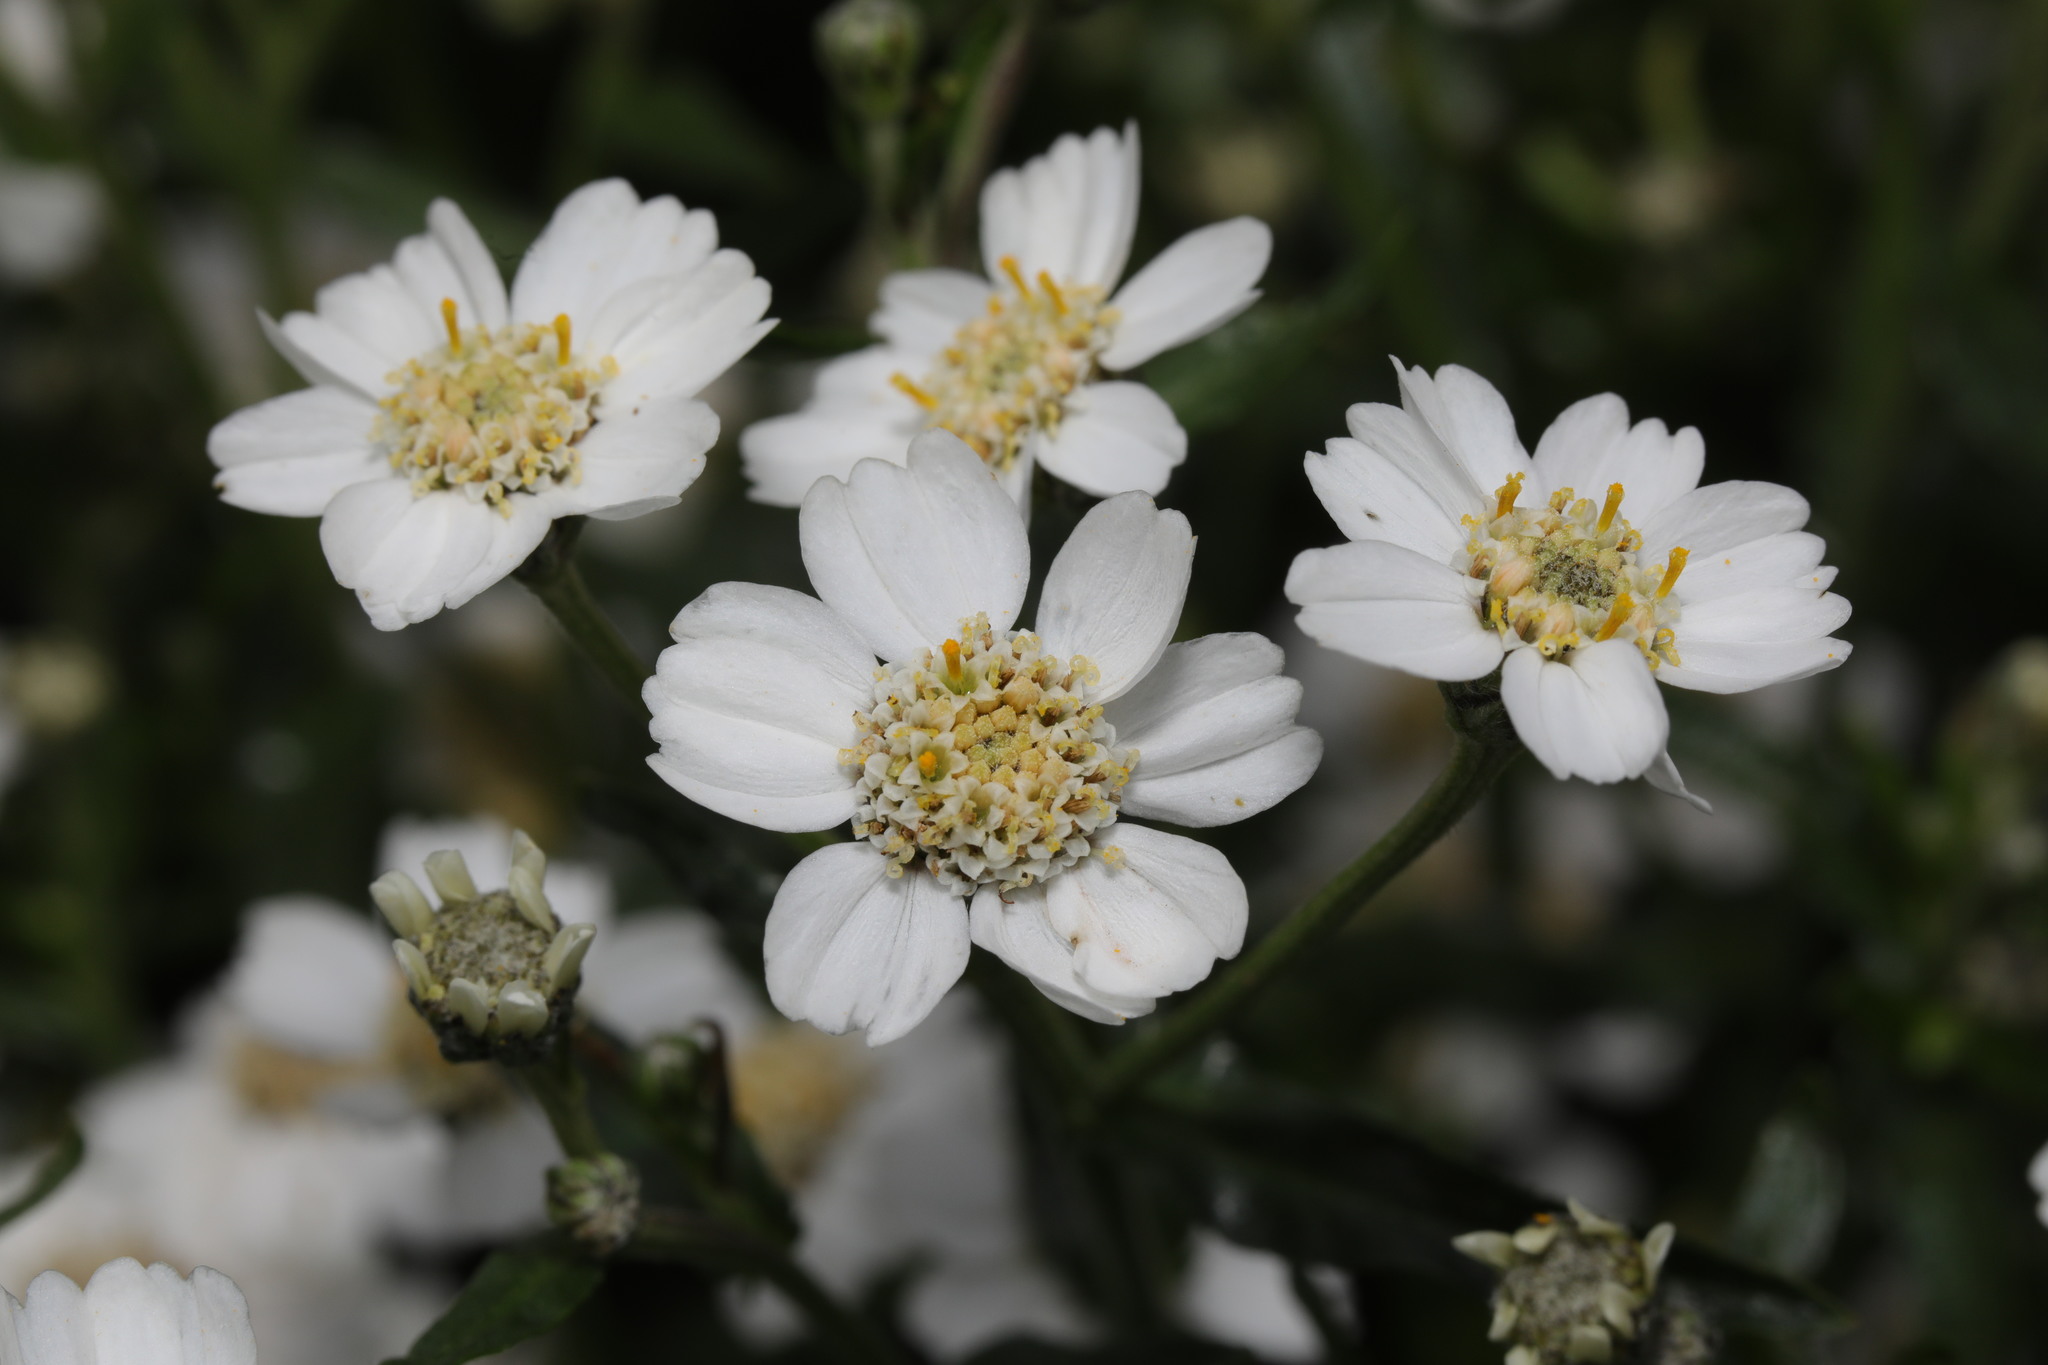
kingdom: Plantae
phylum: Tracheophyta
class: Magnoliopsida
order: Asterales
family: Asteraceae
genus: Achillea
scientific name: Achillea ptarmica
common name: Sneezeweed
